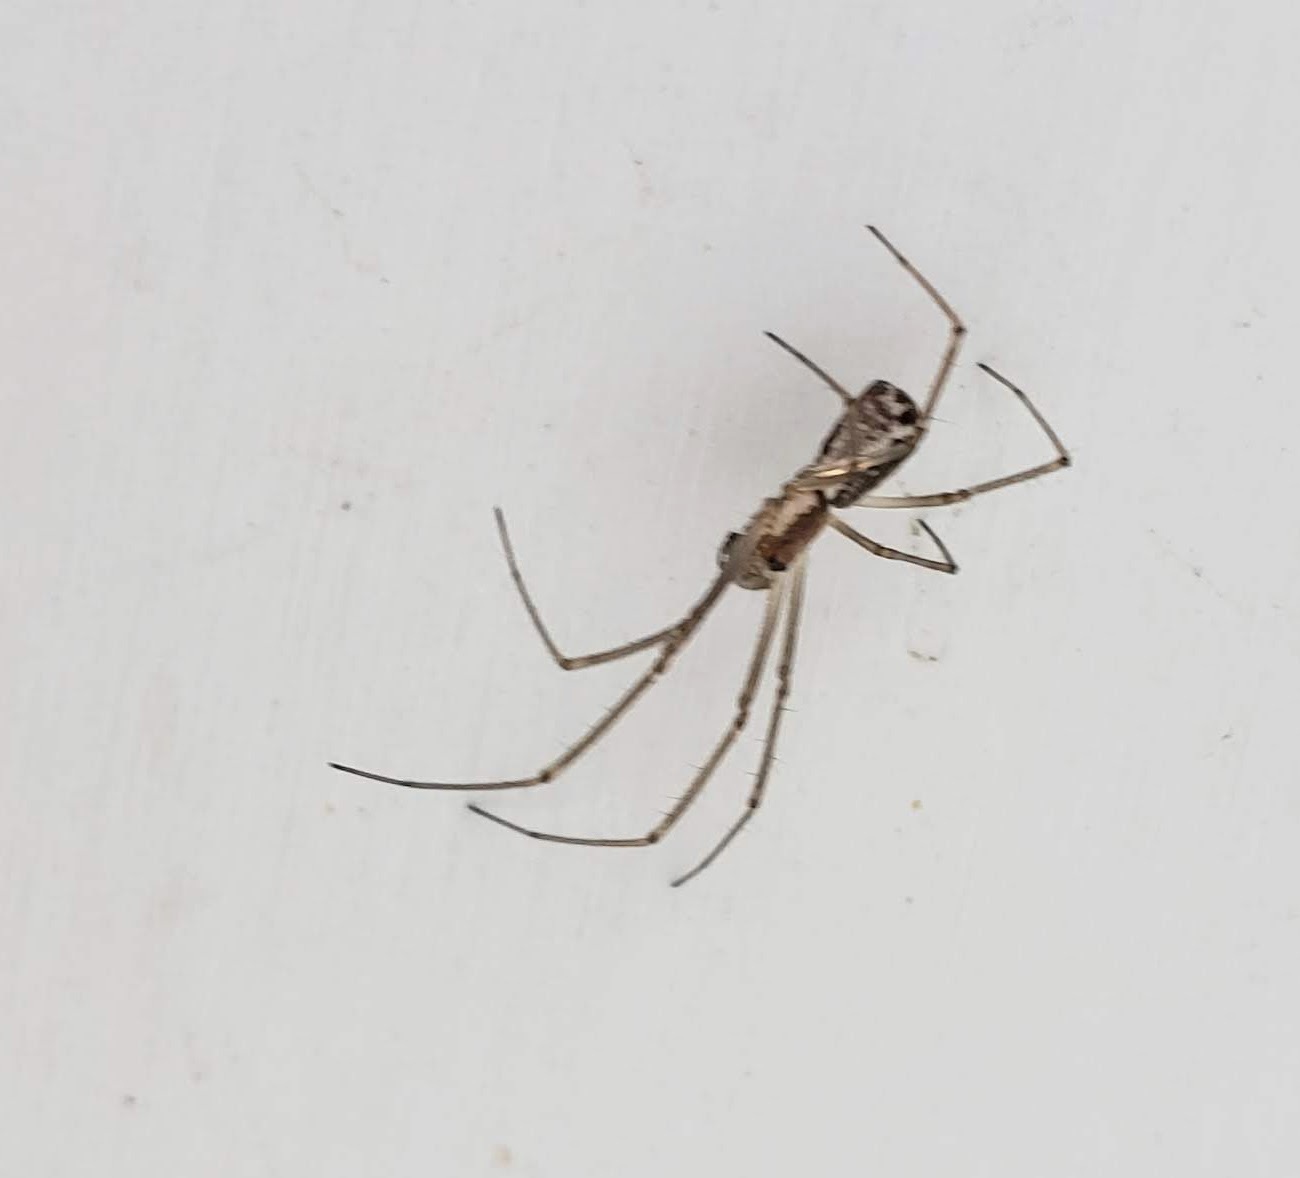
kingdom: Animalia
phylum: Arthropoda
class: Arachnida
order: Araneae
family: Linyphiidae
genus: Neriene
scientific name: Neriene radiata
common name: Filmy dome spider
